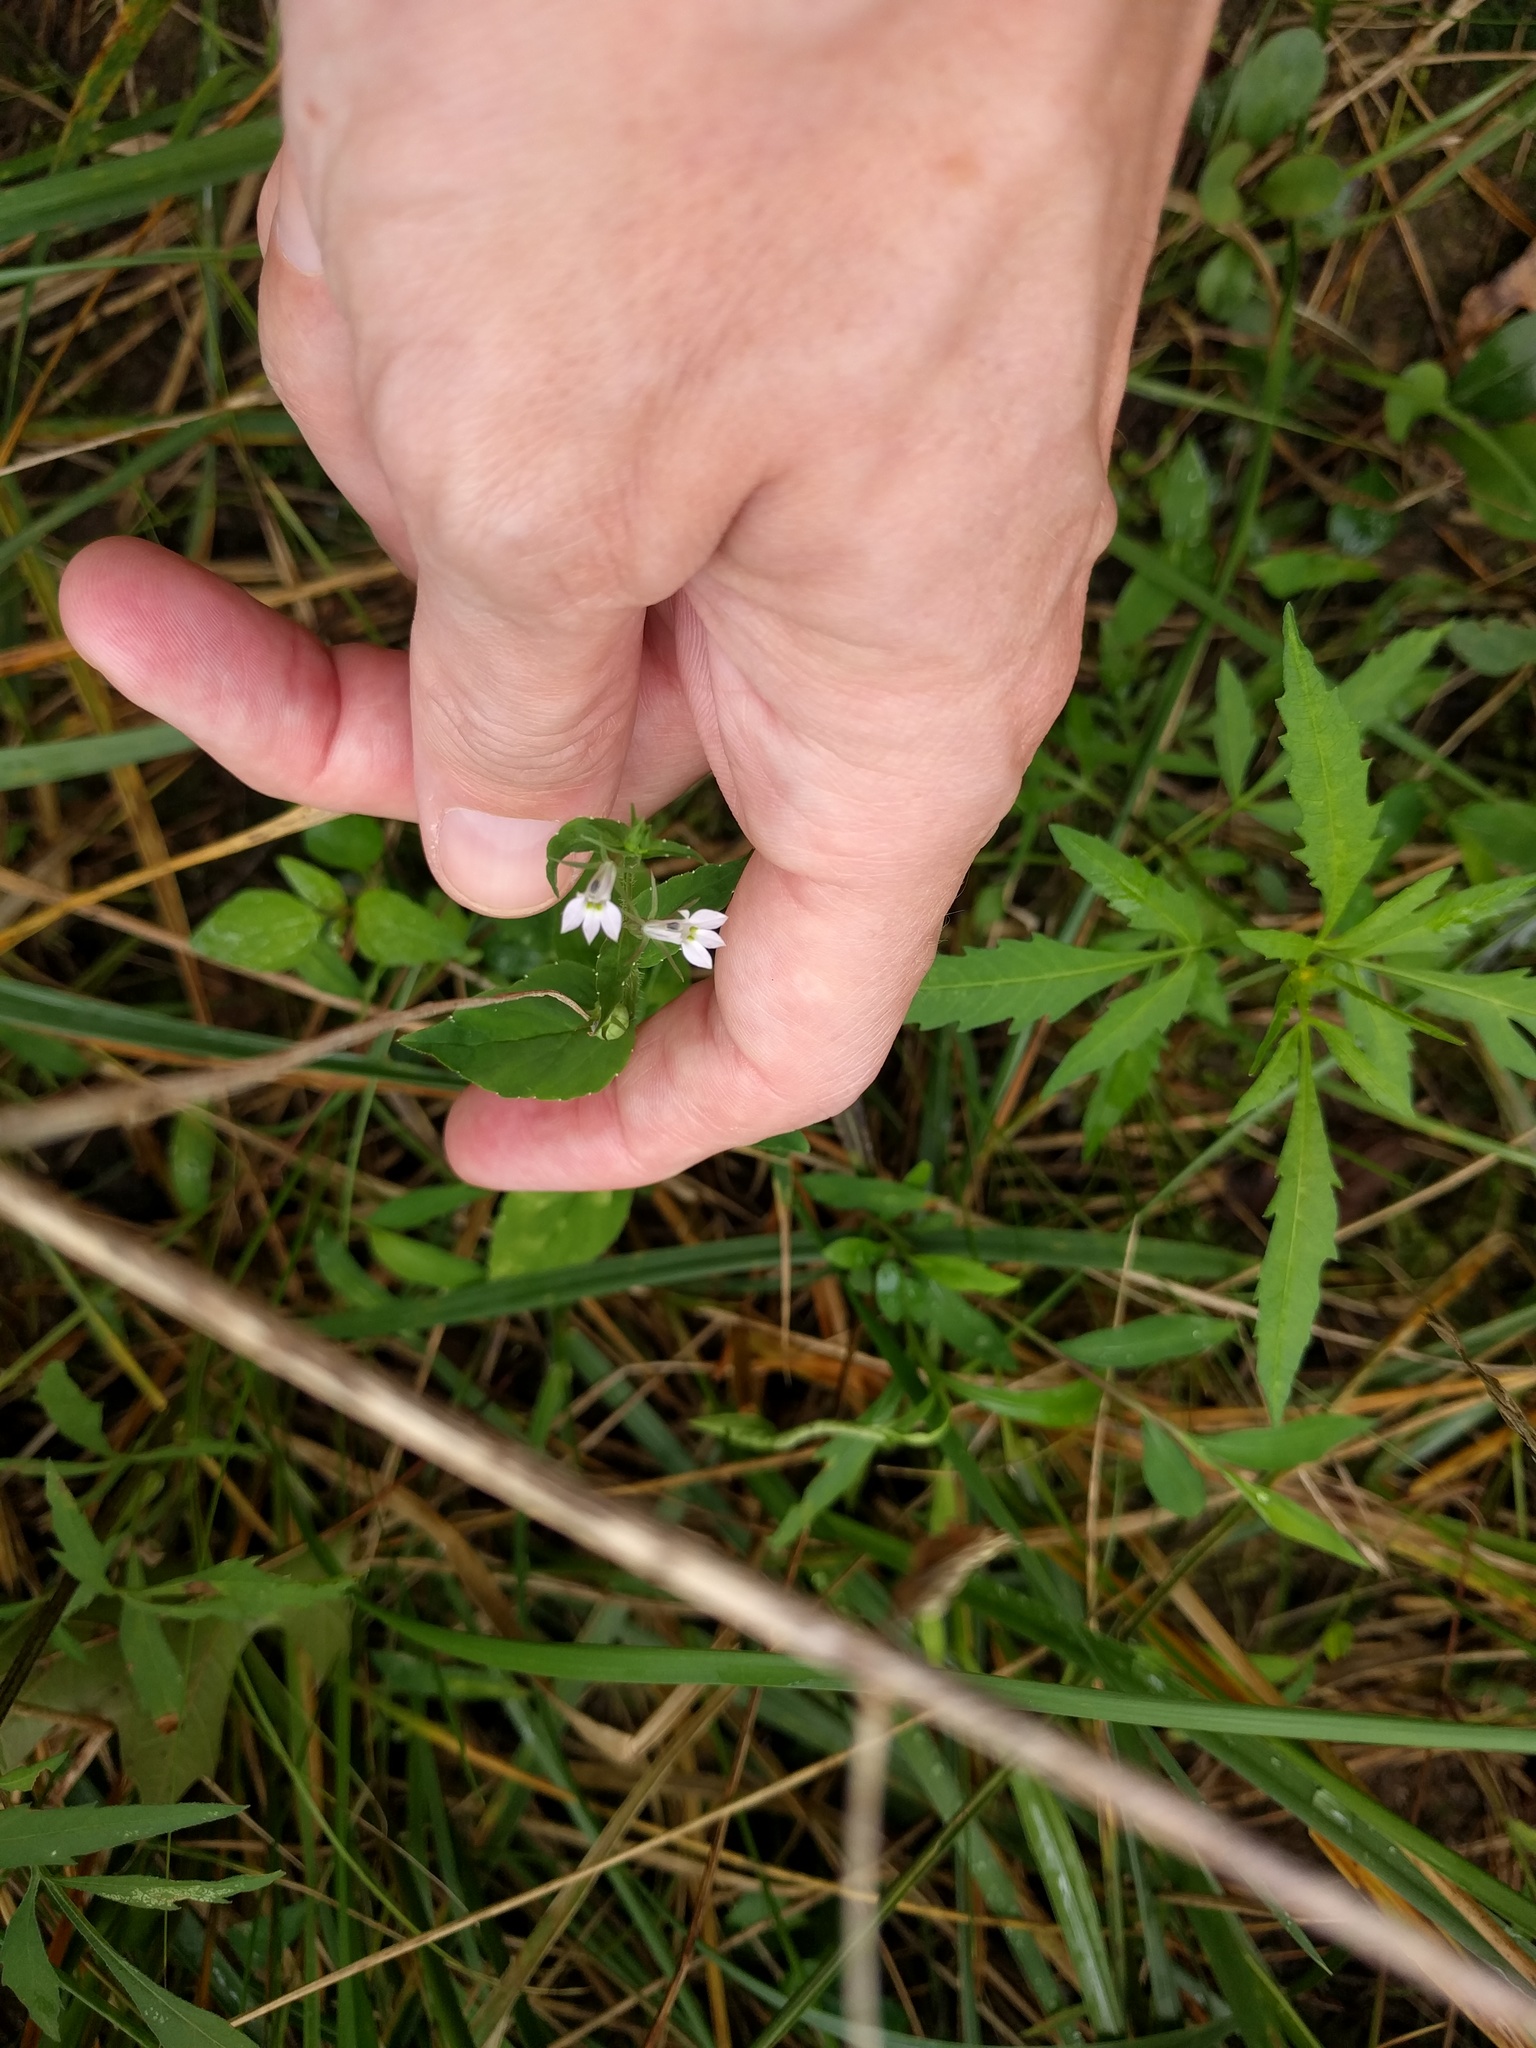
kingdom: Plantae
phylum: Tracheophyta
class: Magnoliopsida
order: Asterales
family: Campanulaceae
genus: Lobelia
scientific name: Lobelia inflata
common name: Indian tobacco
